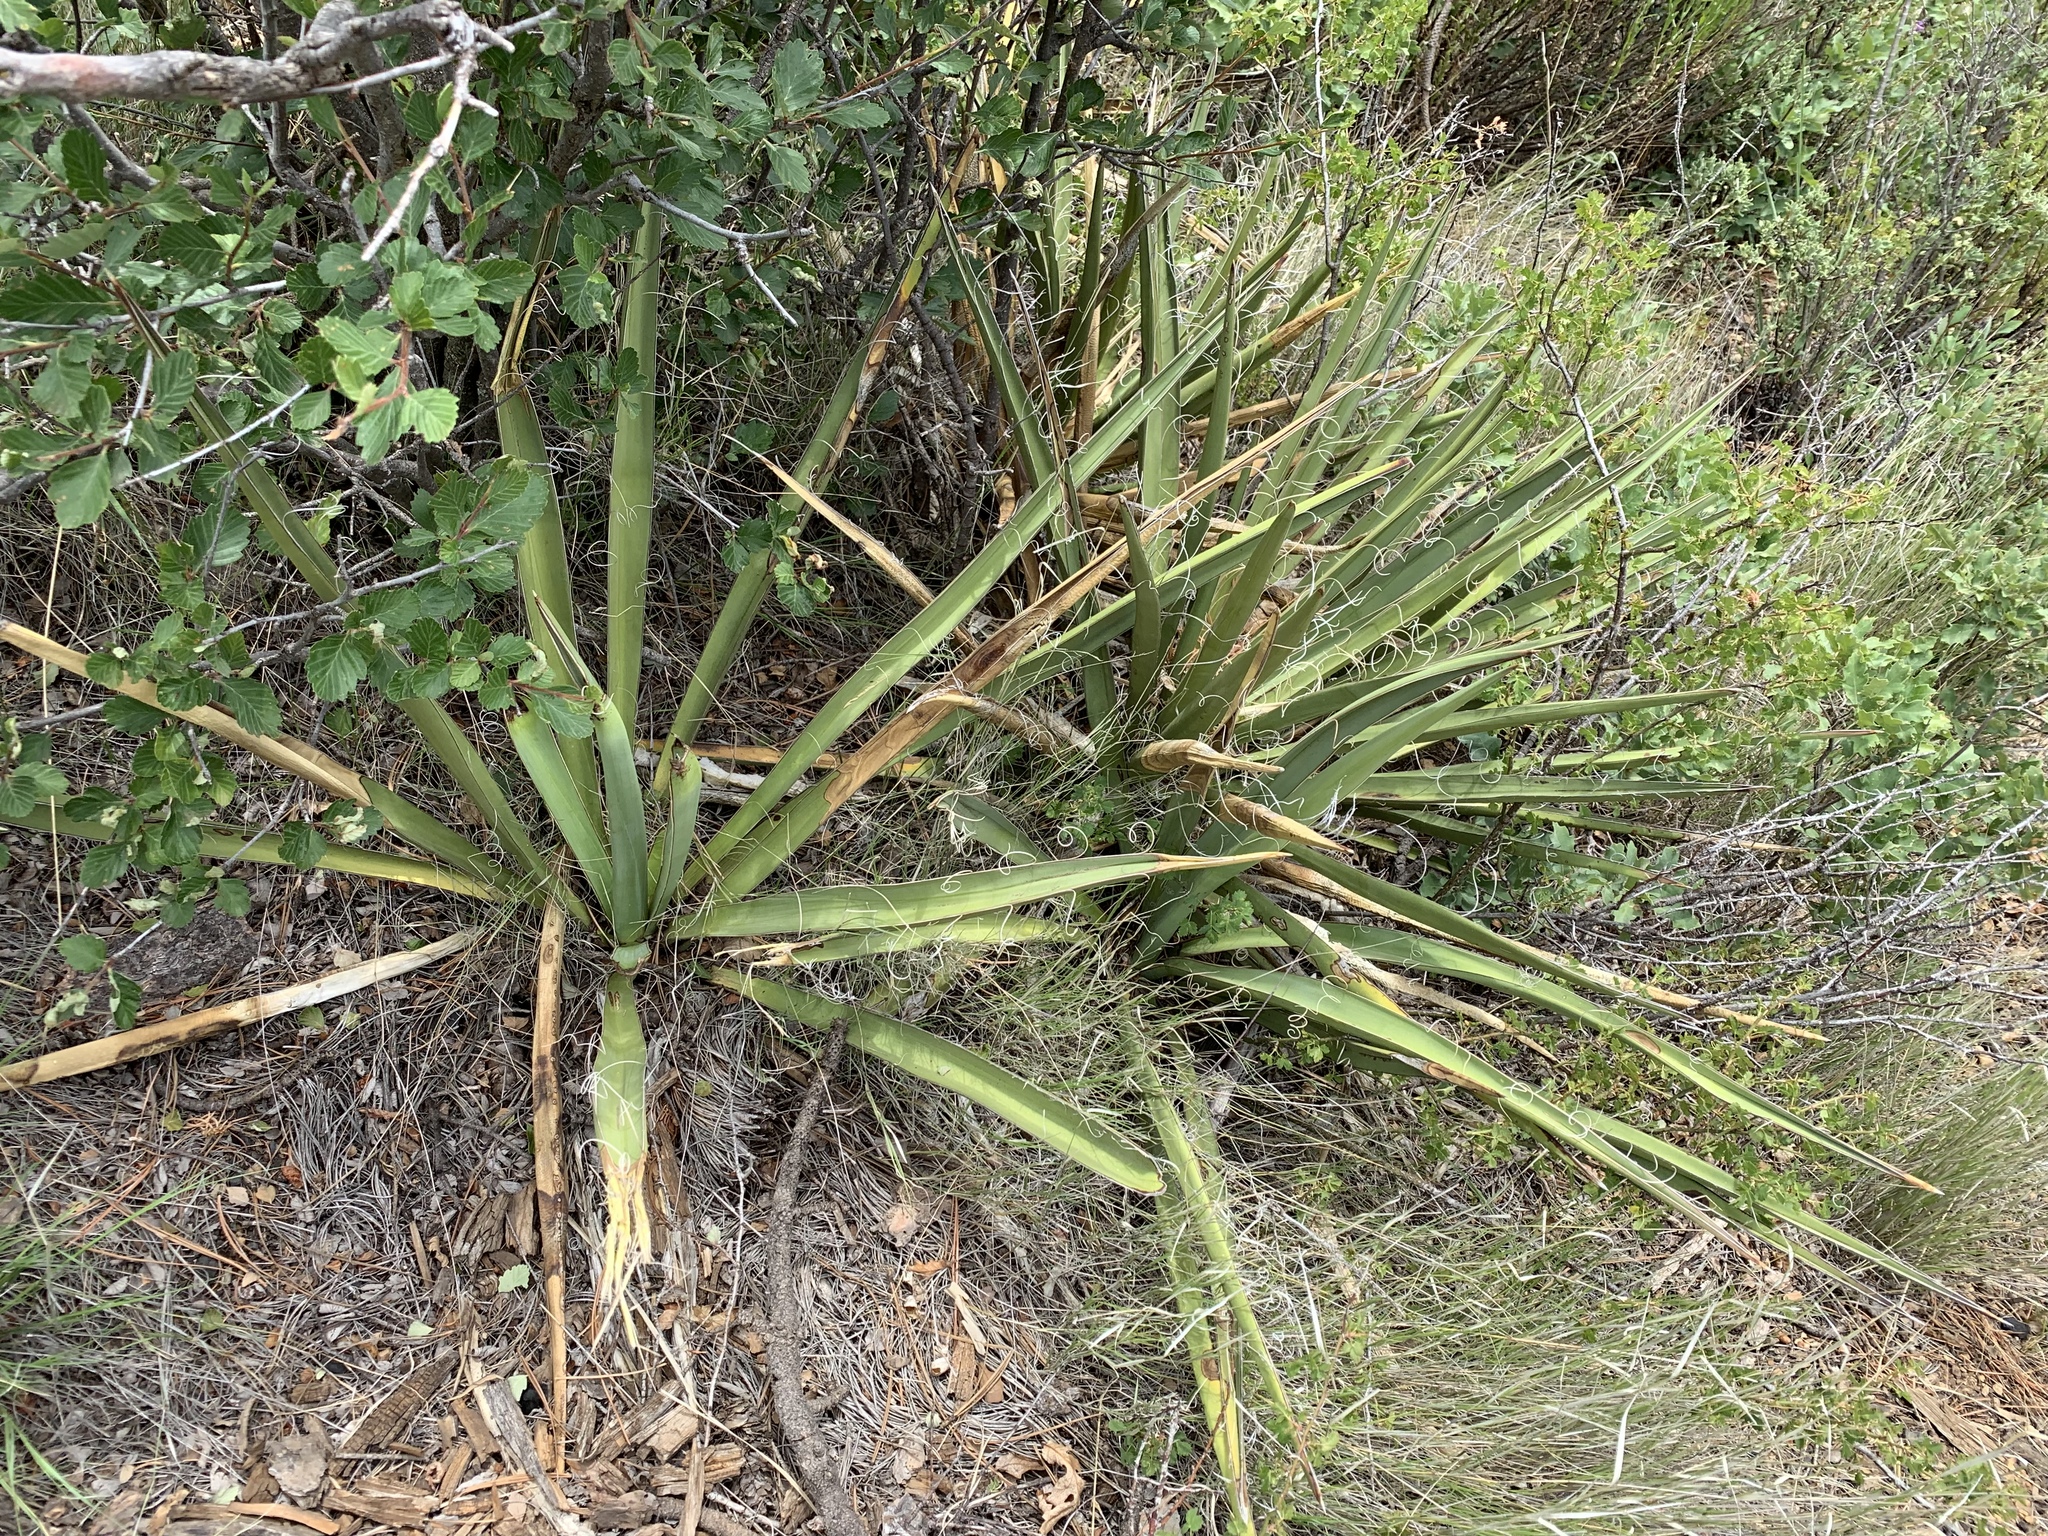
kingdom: Plantae
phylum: Tracheophyta
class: Liliopsida
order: Asparagales
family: Asparagaceae
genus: Yucca
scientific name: Yucca baccata
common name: Banana yucca
